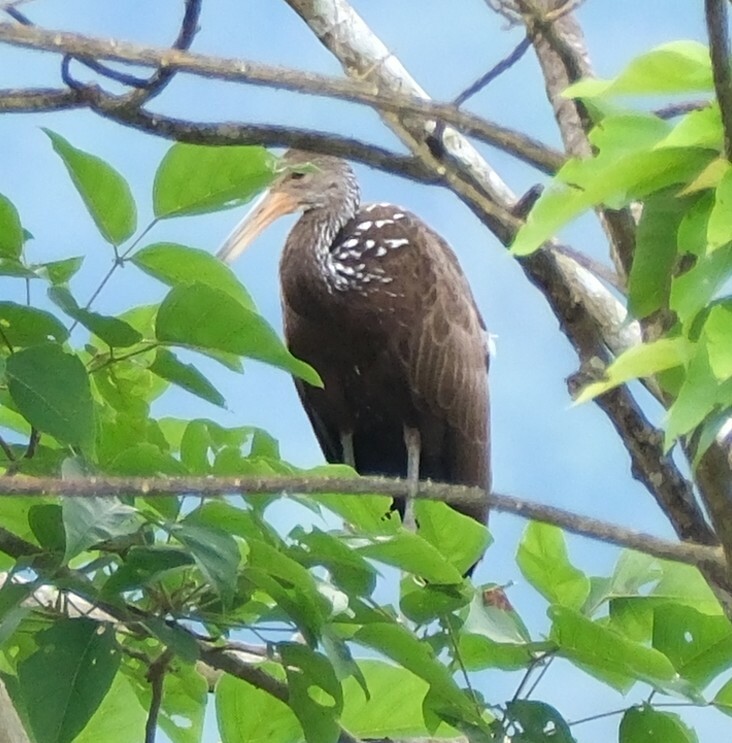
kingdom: Animalia
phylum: Chordata
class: Aves
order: Gruiformes
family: Aramidae
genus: Aramus
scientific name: Aramus guarauna
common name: Limpkin
